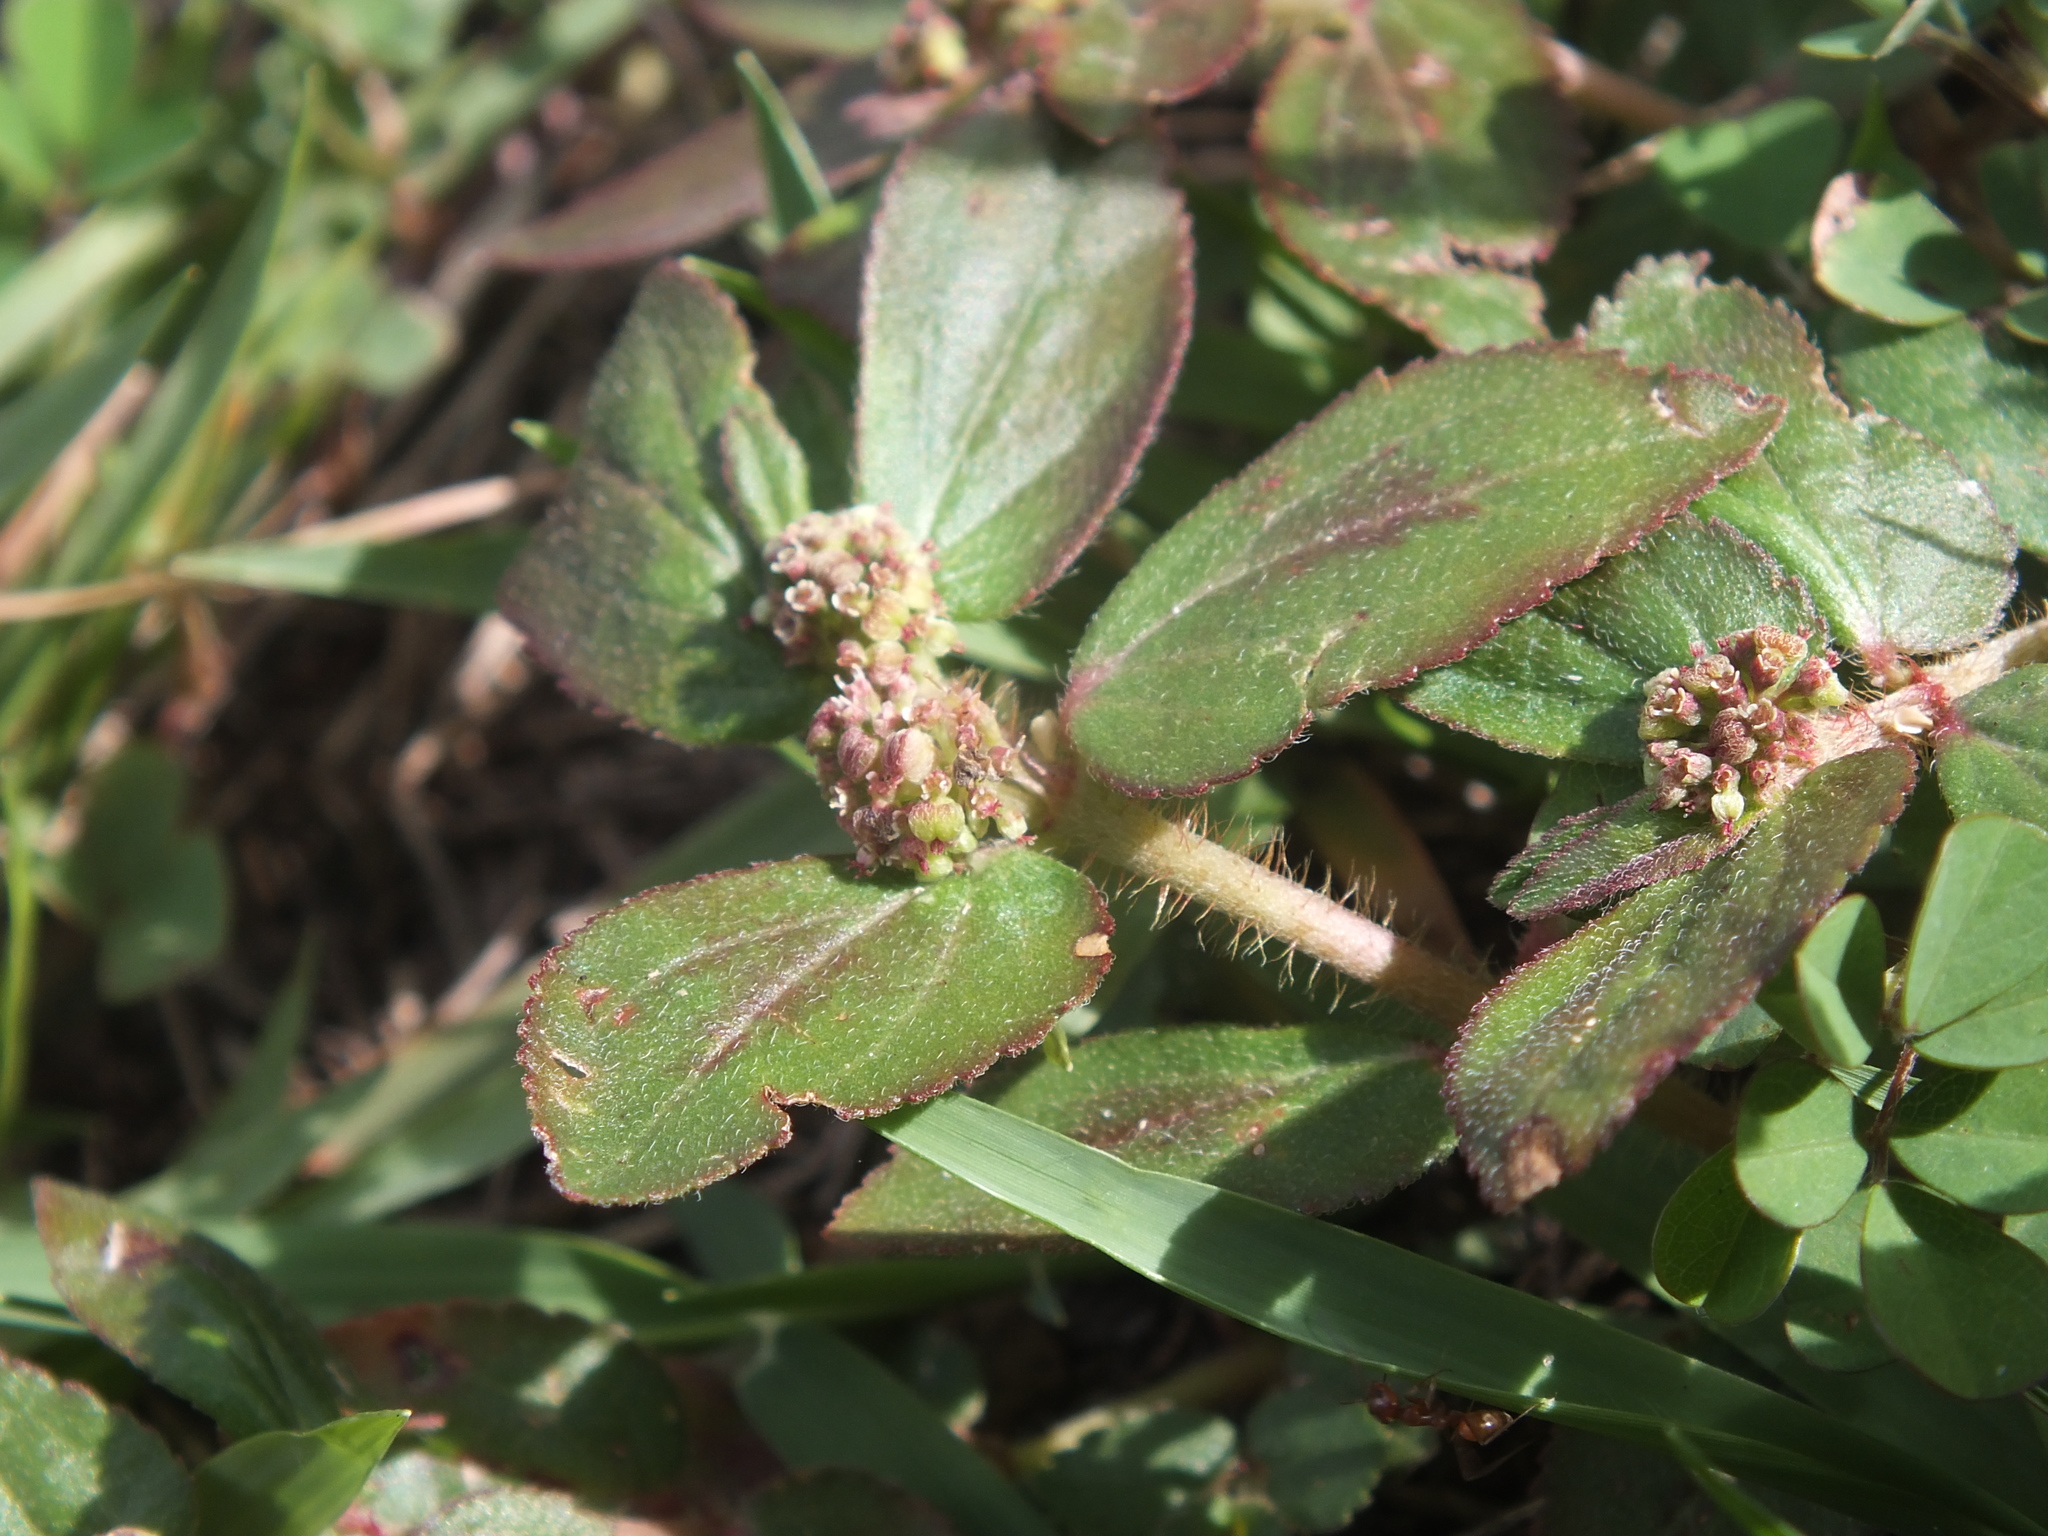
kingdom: Plantae
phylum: Tracheophyta
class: Magnoliopsida
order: Malpighiales
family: Euphorbiaceae
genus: Euphorbia
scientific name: Euphorbia hirta
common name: Pillpod sandmat
